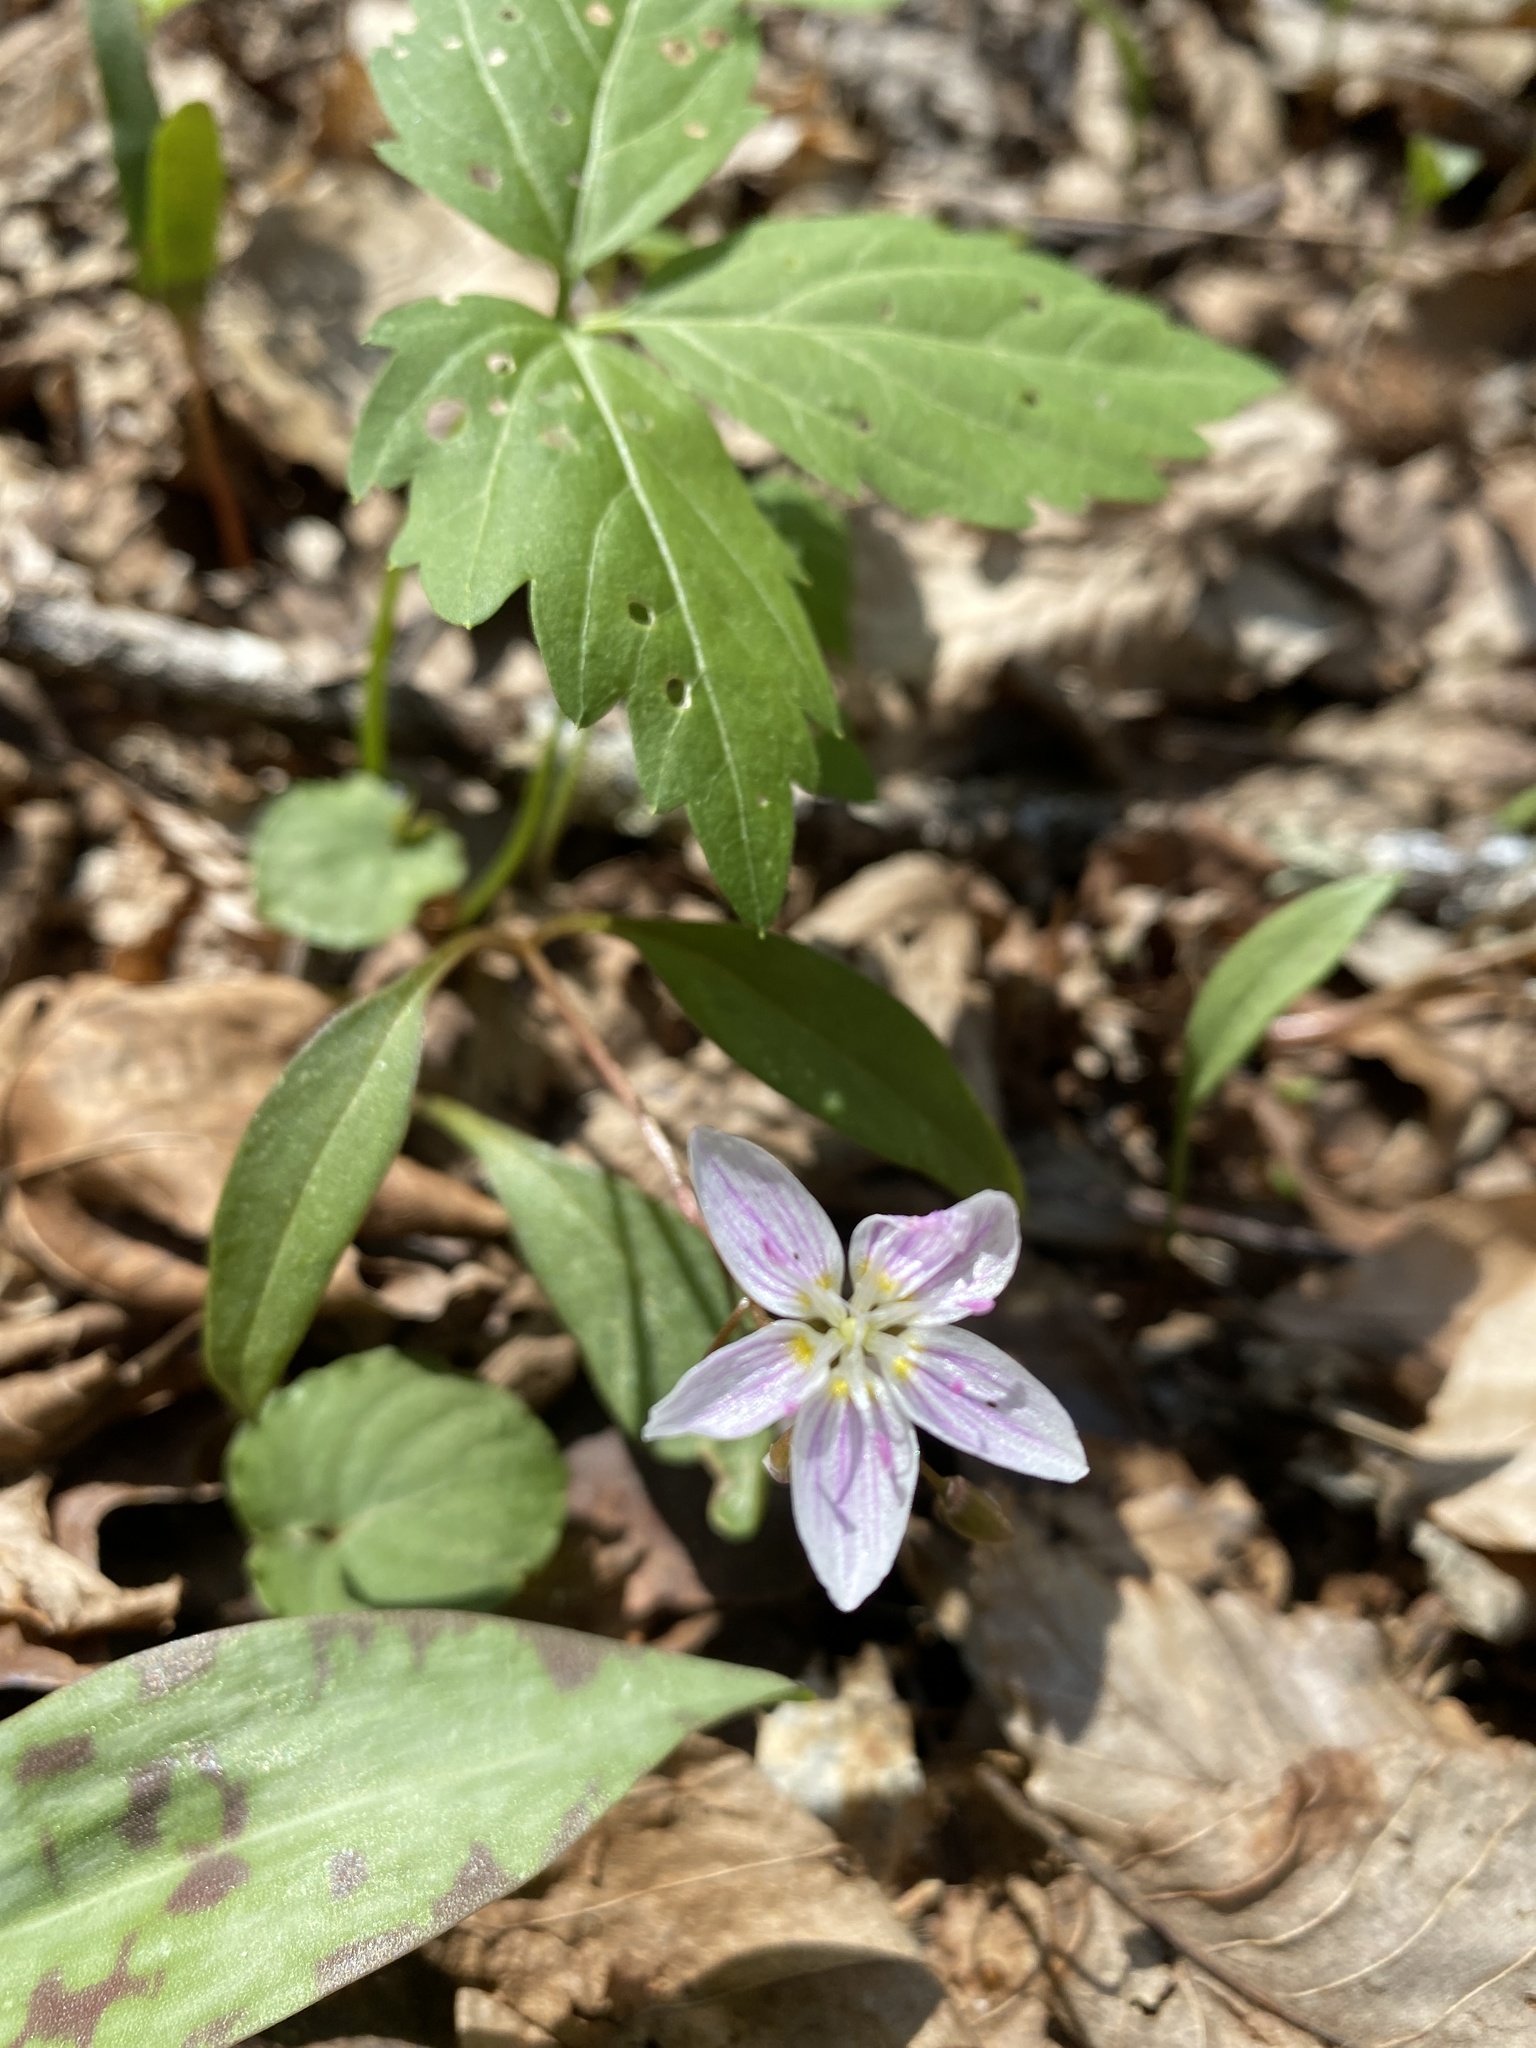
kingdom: Plantae
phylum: Tracheophyta
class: Magnoliopsida
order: Caryophyllales
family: Montiaceae
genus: Claytonia
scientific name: Claytonia caroliniana
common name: Carolina spring beauty
